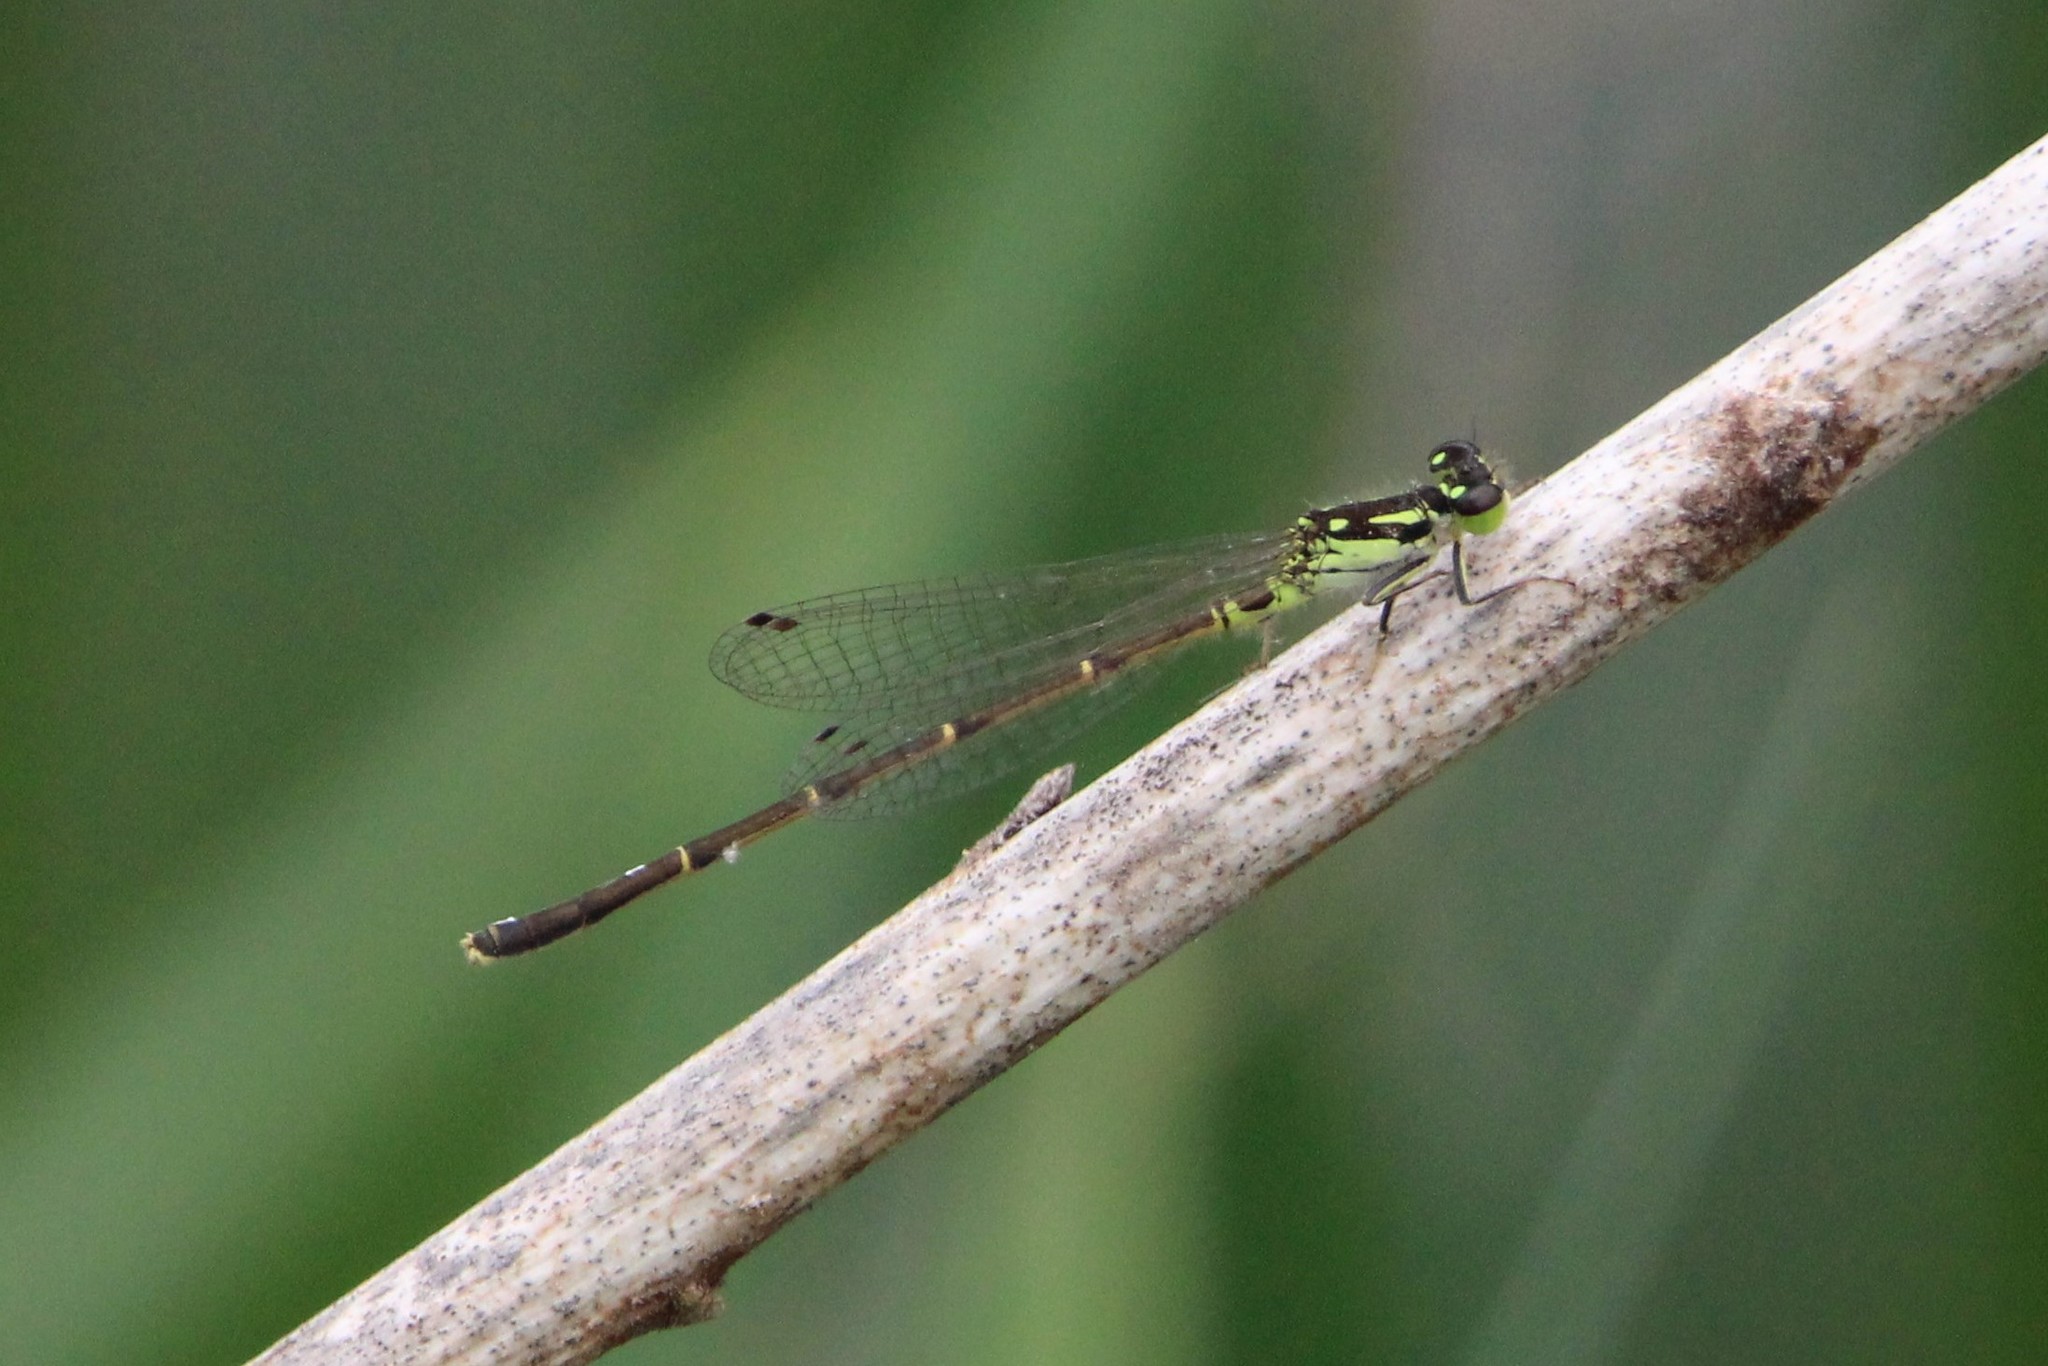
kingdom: Animalia
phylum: Arthropoda
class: Insecta
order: Odonata
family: Coenagrionidae
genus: Ischnura
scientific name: Ischnura posita
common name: Fragile forktail
